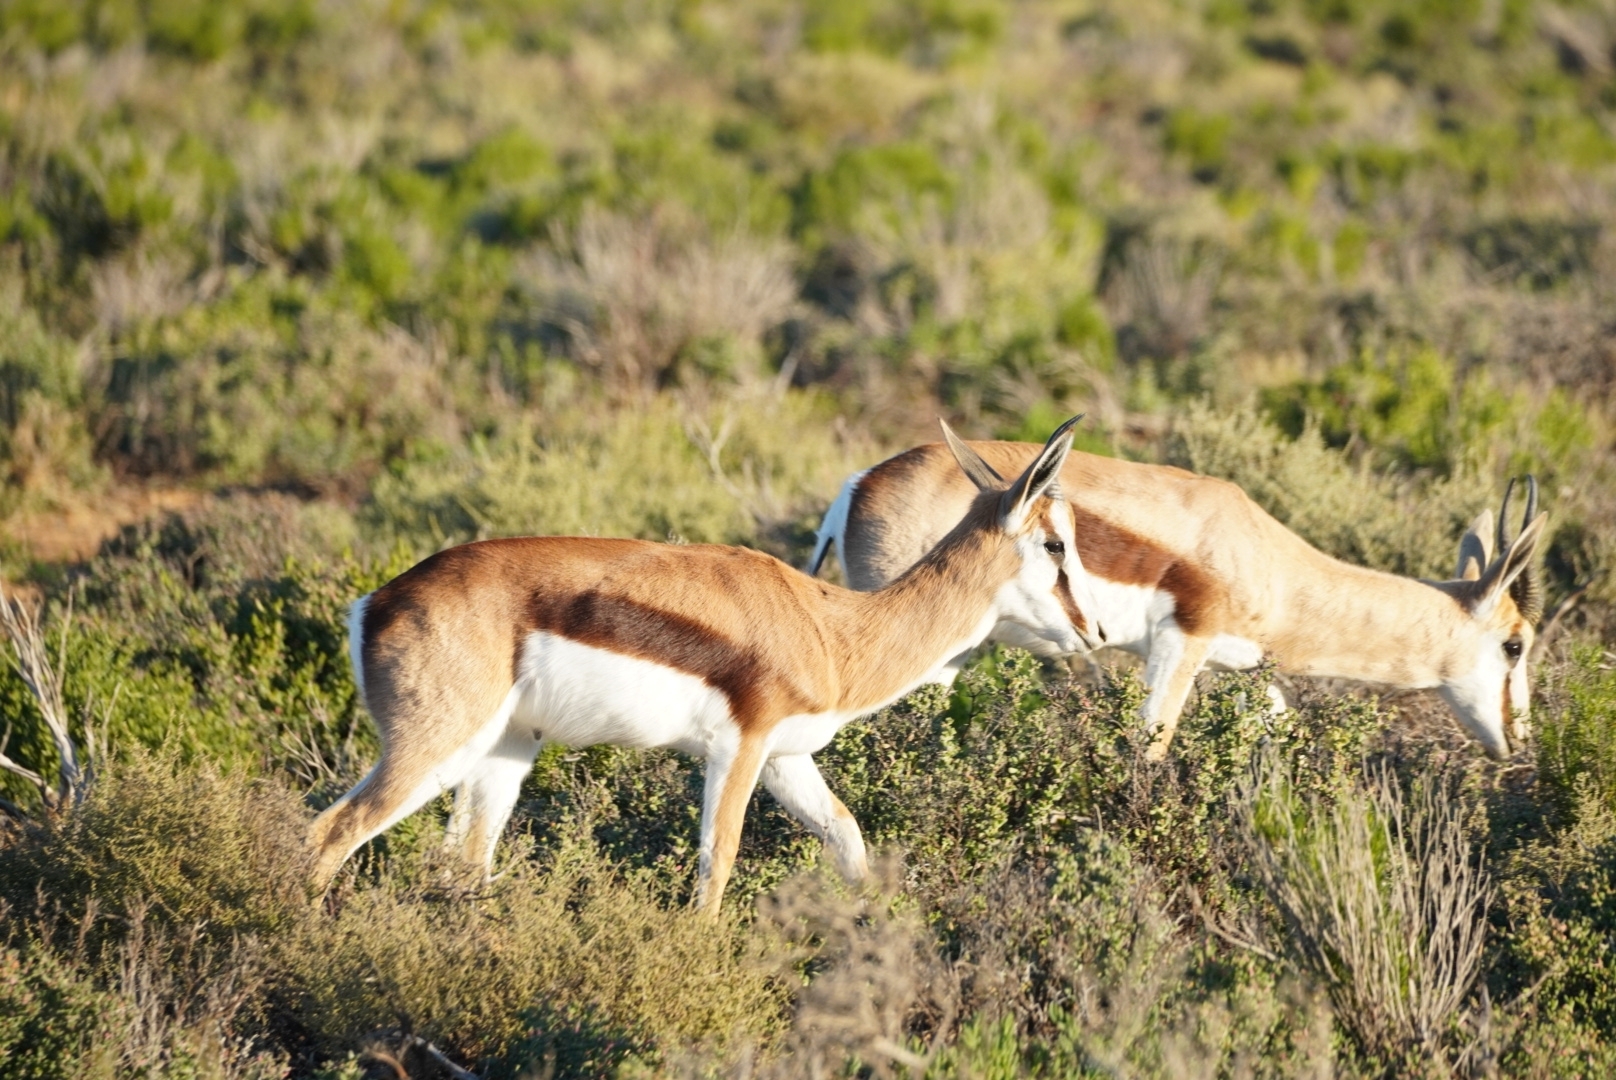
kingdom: Animalia
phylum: Chordata
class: Mammalia
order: Artiodactyla
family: Bovidae
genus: Antidorcas
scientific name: Antidorcas marsupialis
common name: Springbok
